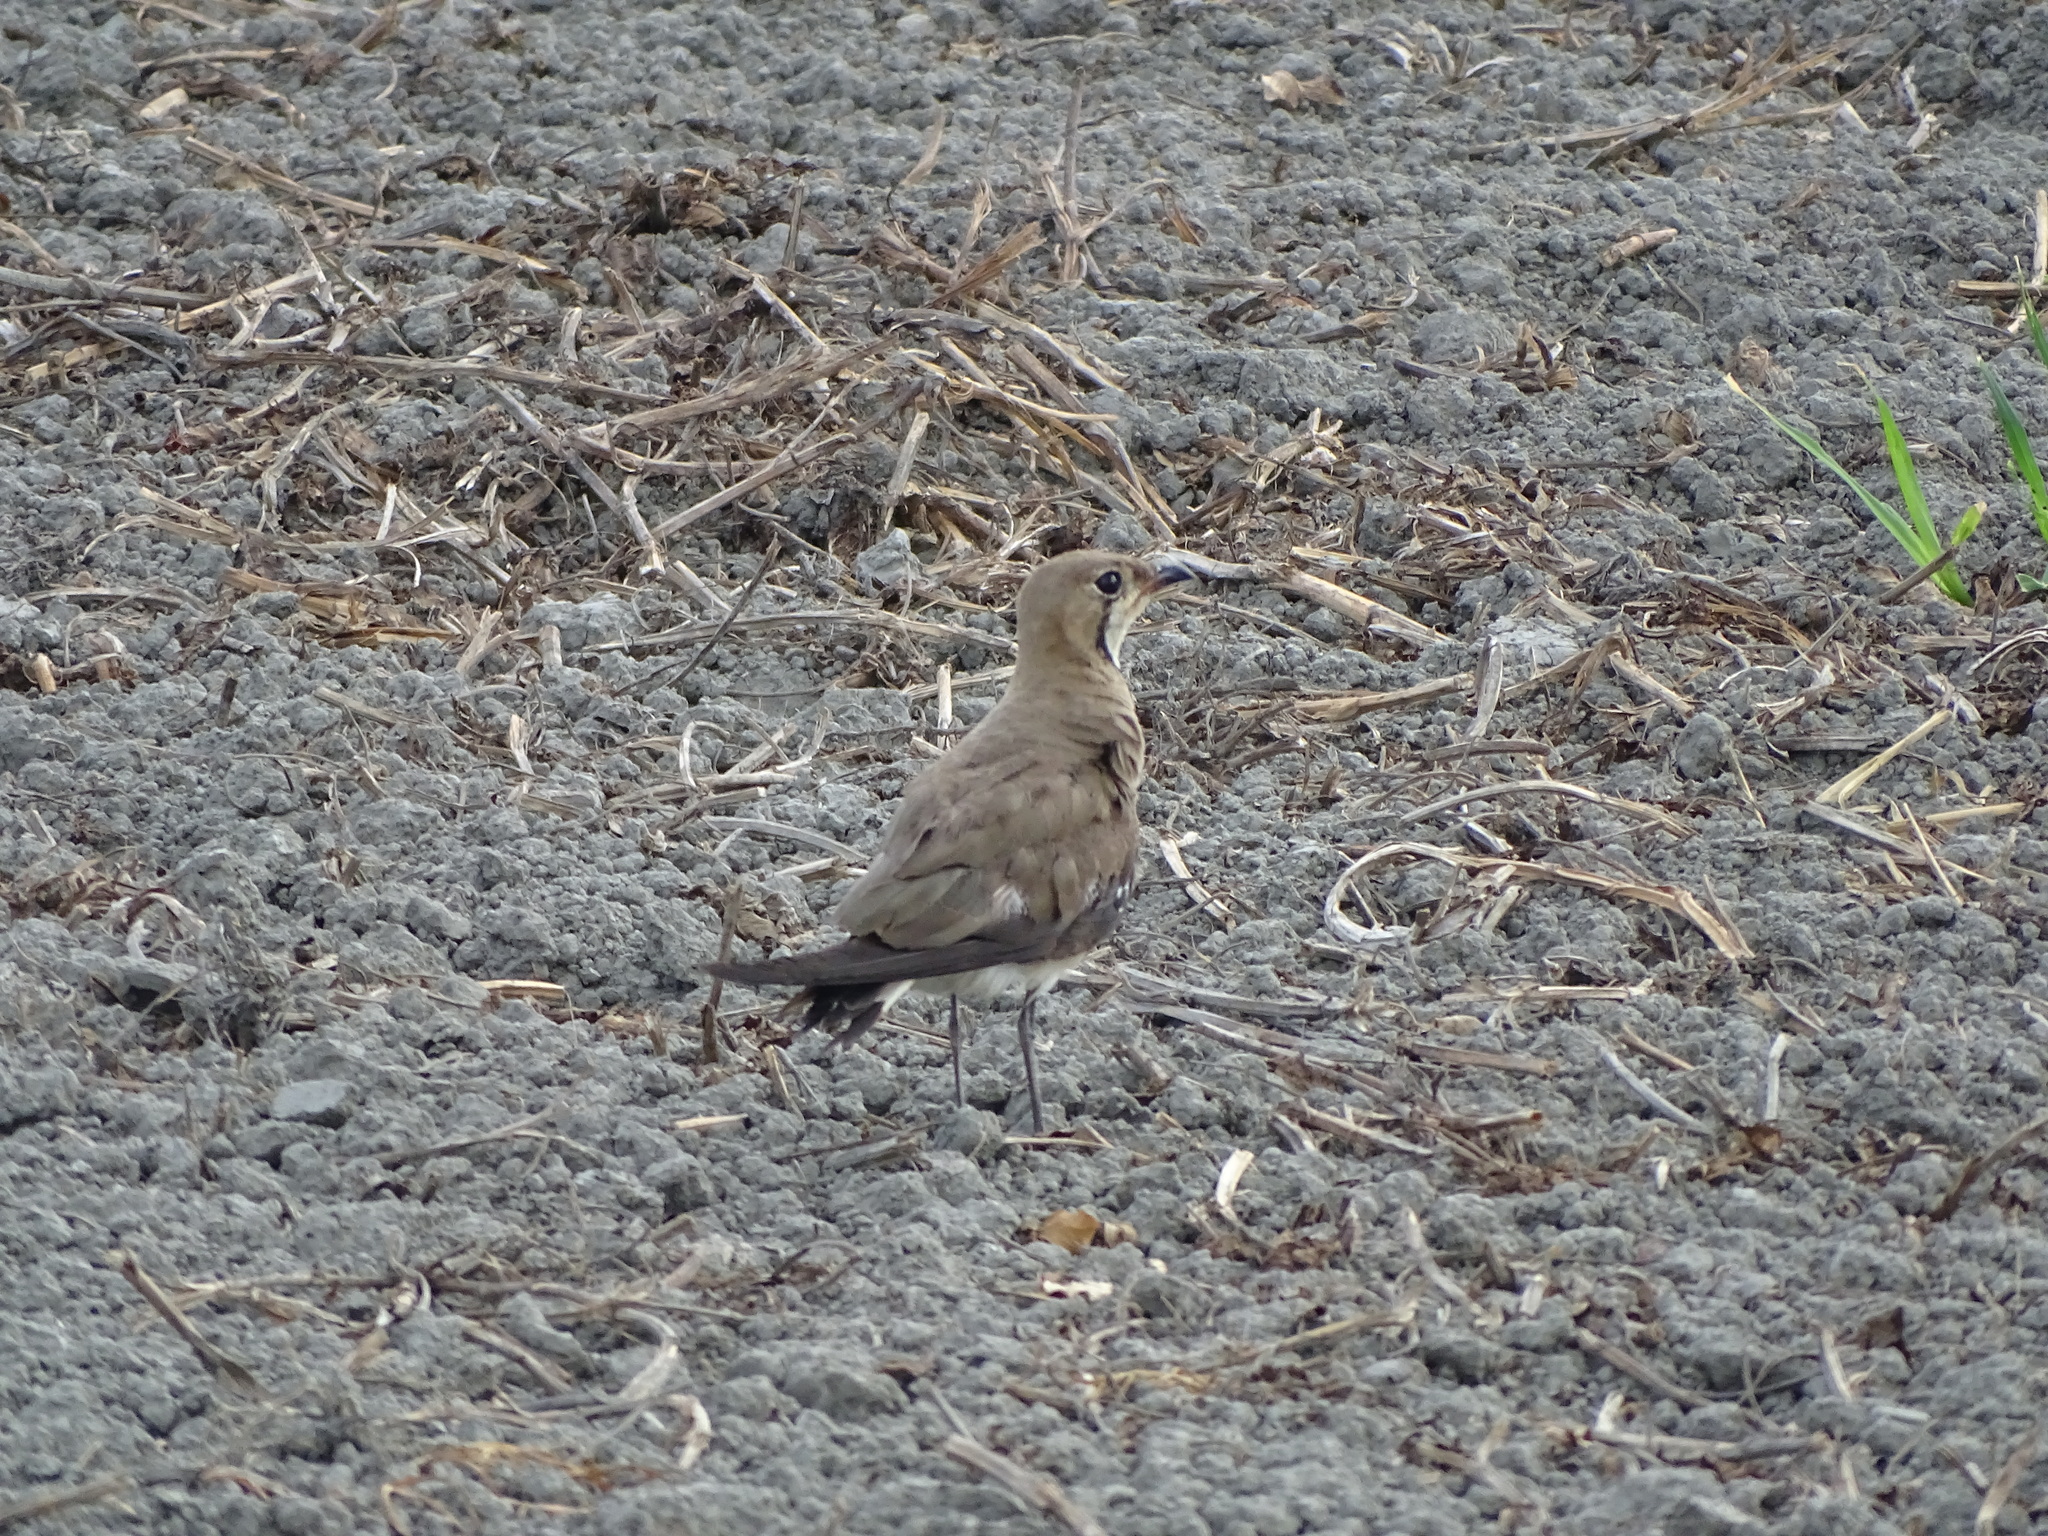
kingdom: Animalia
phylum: Chordata
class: Aves
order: Charadriiformes
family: Glareolidae
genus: Glareola
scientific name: Glareola maldivarum
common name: Oriental pratincole
